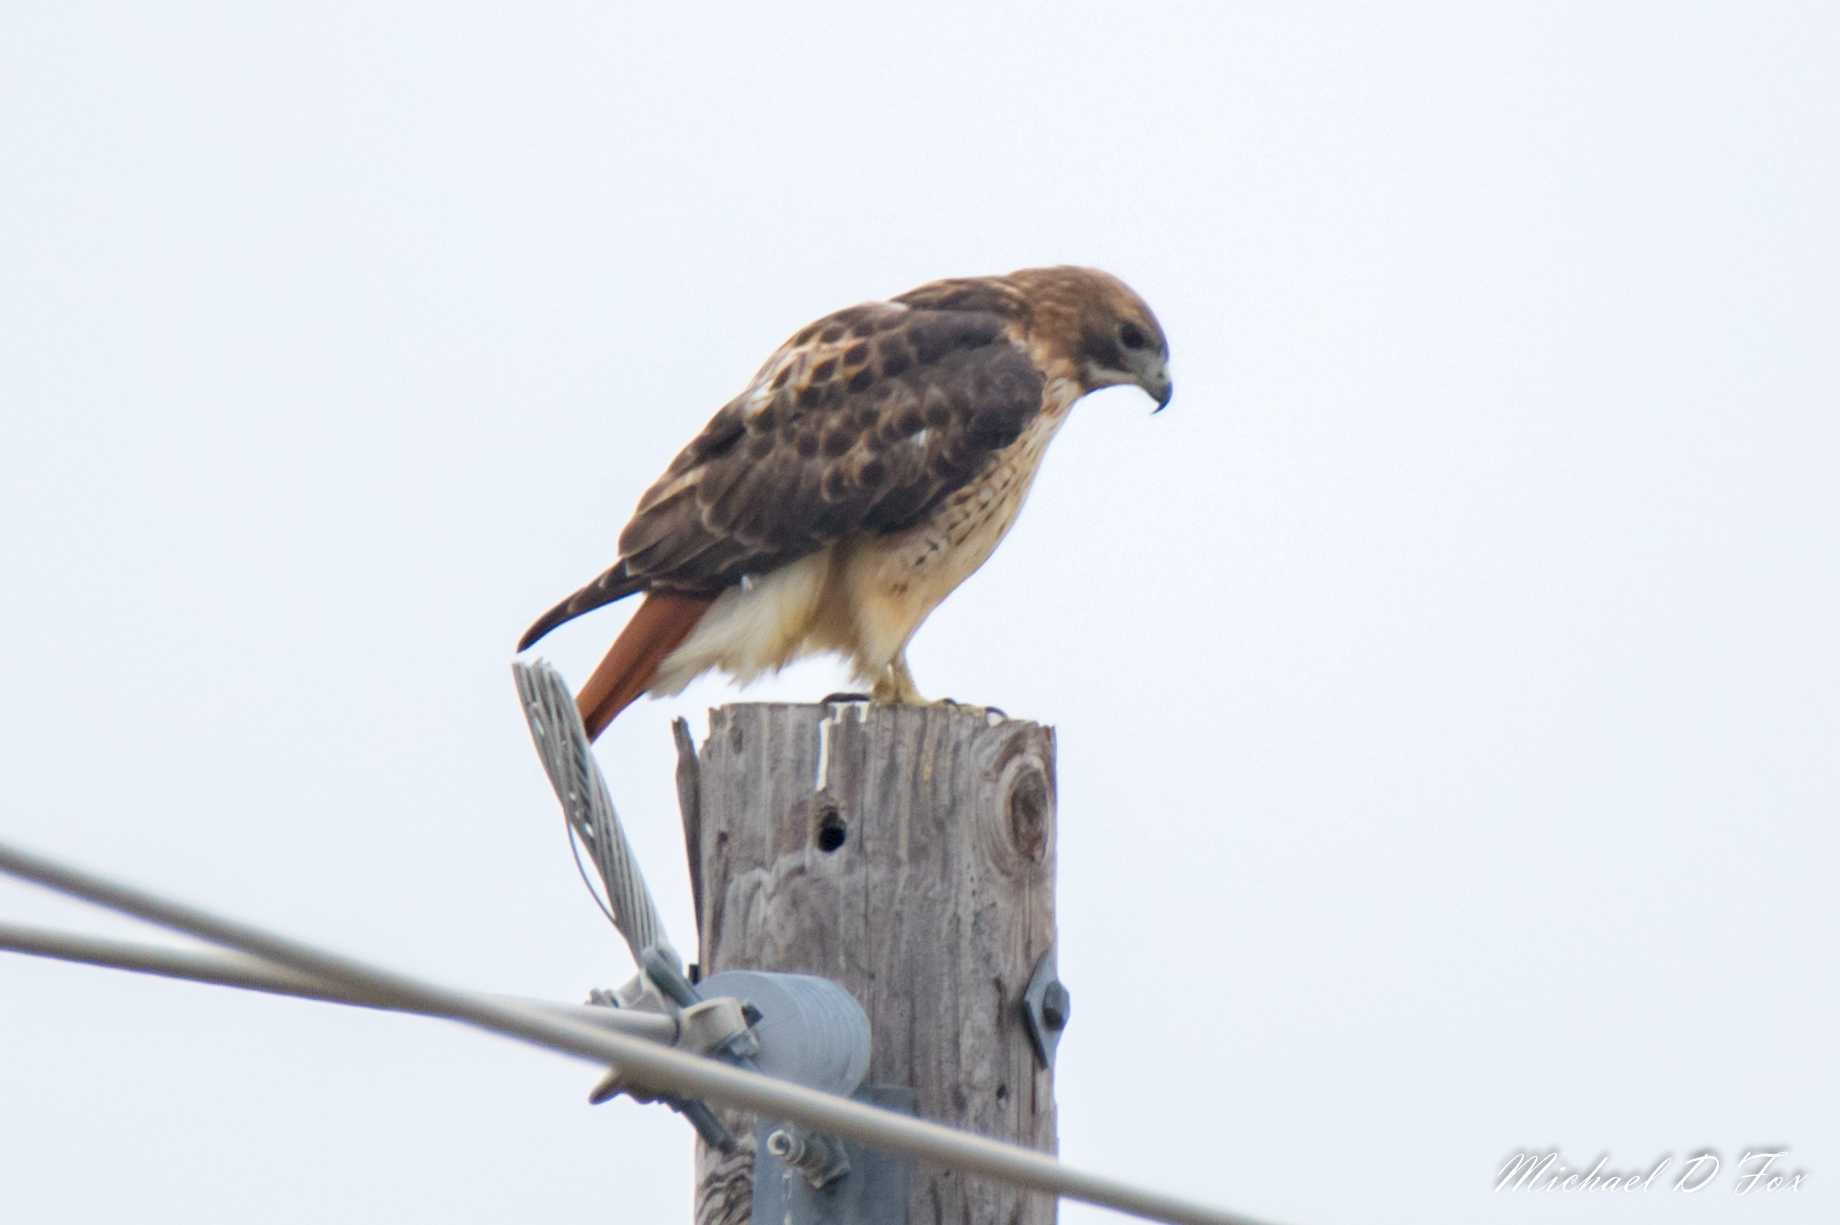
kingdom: Animalia
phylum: Chordata
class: Aves
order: Accipitriformes
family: Accipitridae
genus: Buteo
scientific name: Buteo jamaicensis
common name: Red-tailed hawk
